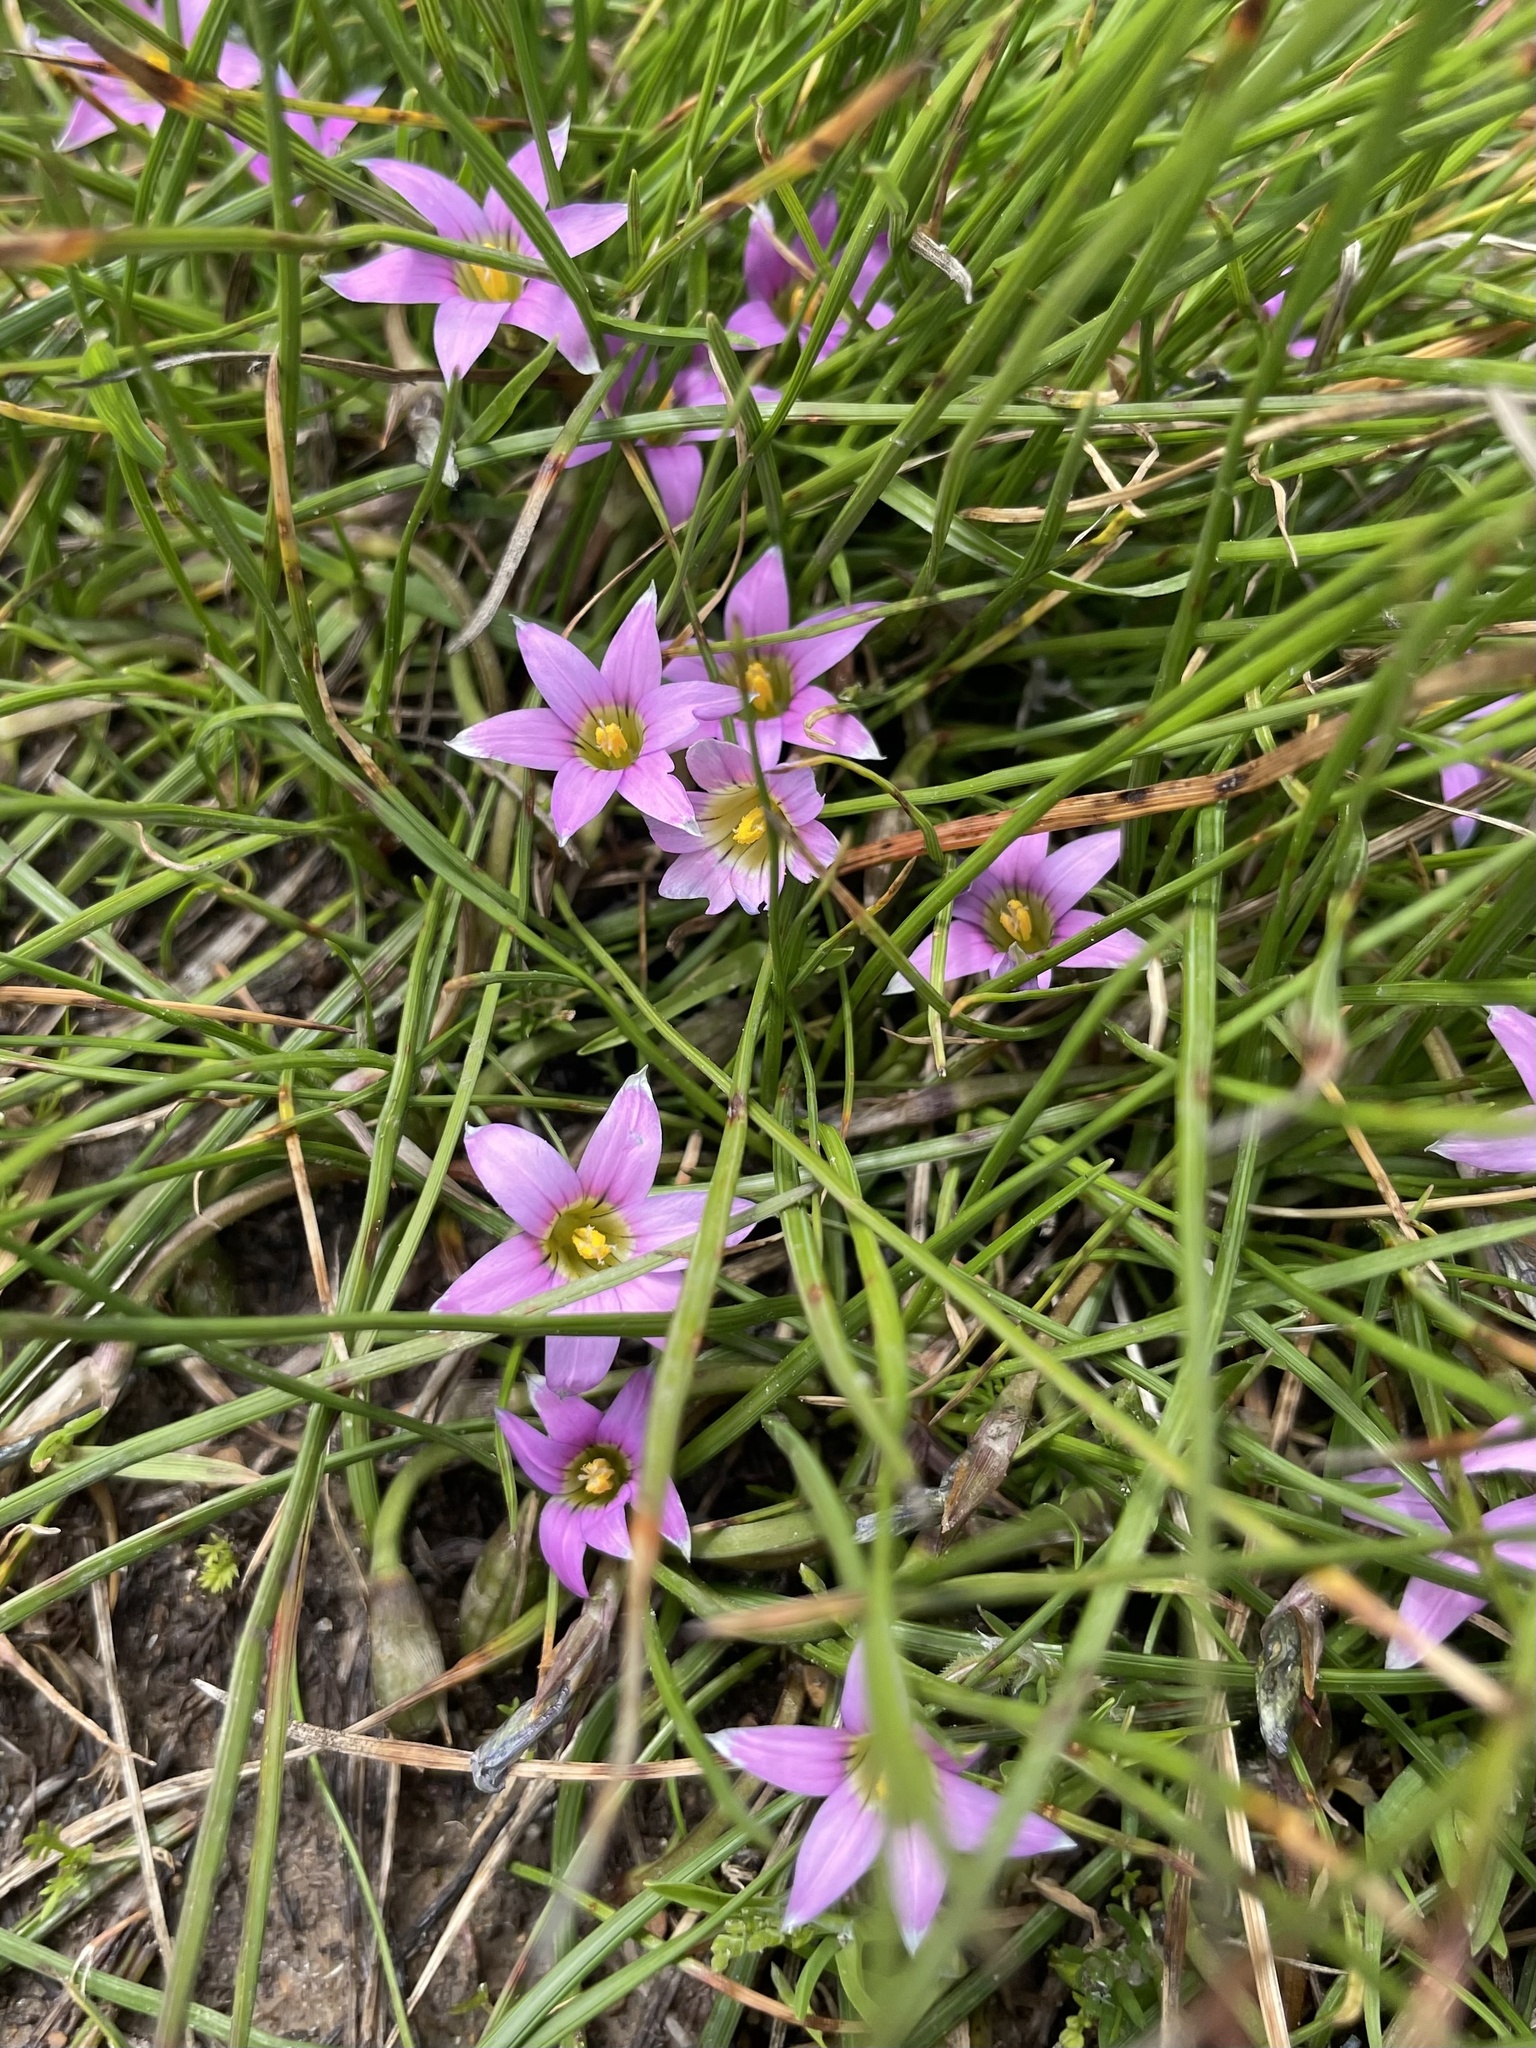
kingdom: Plantae
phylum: Tracheophyta
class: Liliopsida
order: Asparagales
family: Iridaceae
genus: Romulea
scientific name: Romulea rosea
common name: Oniongrass
